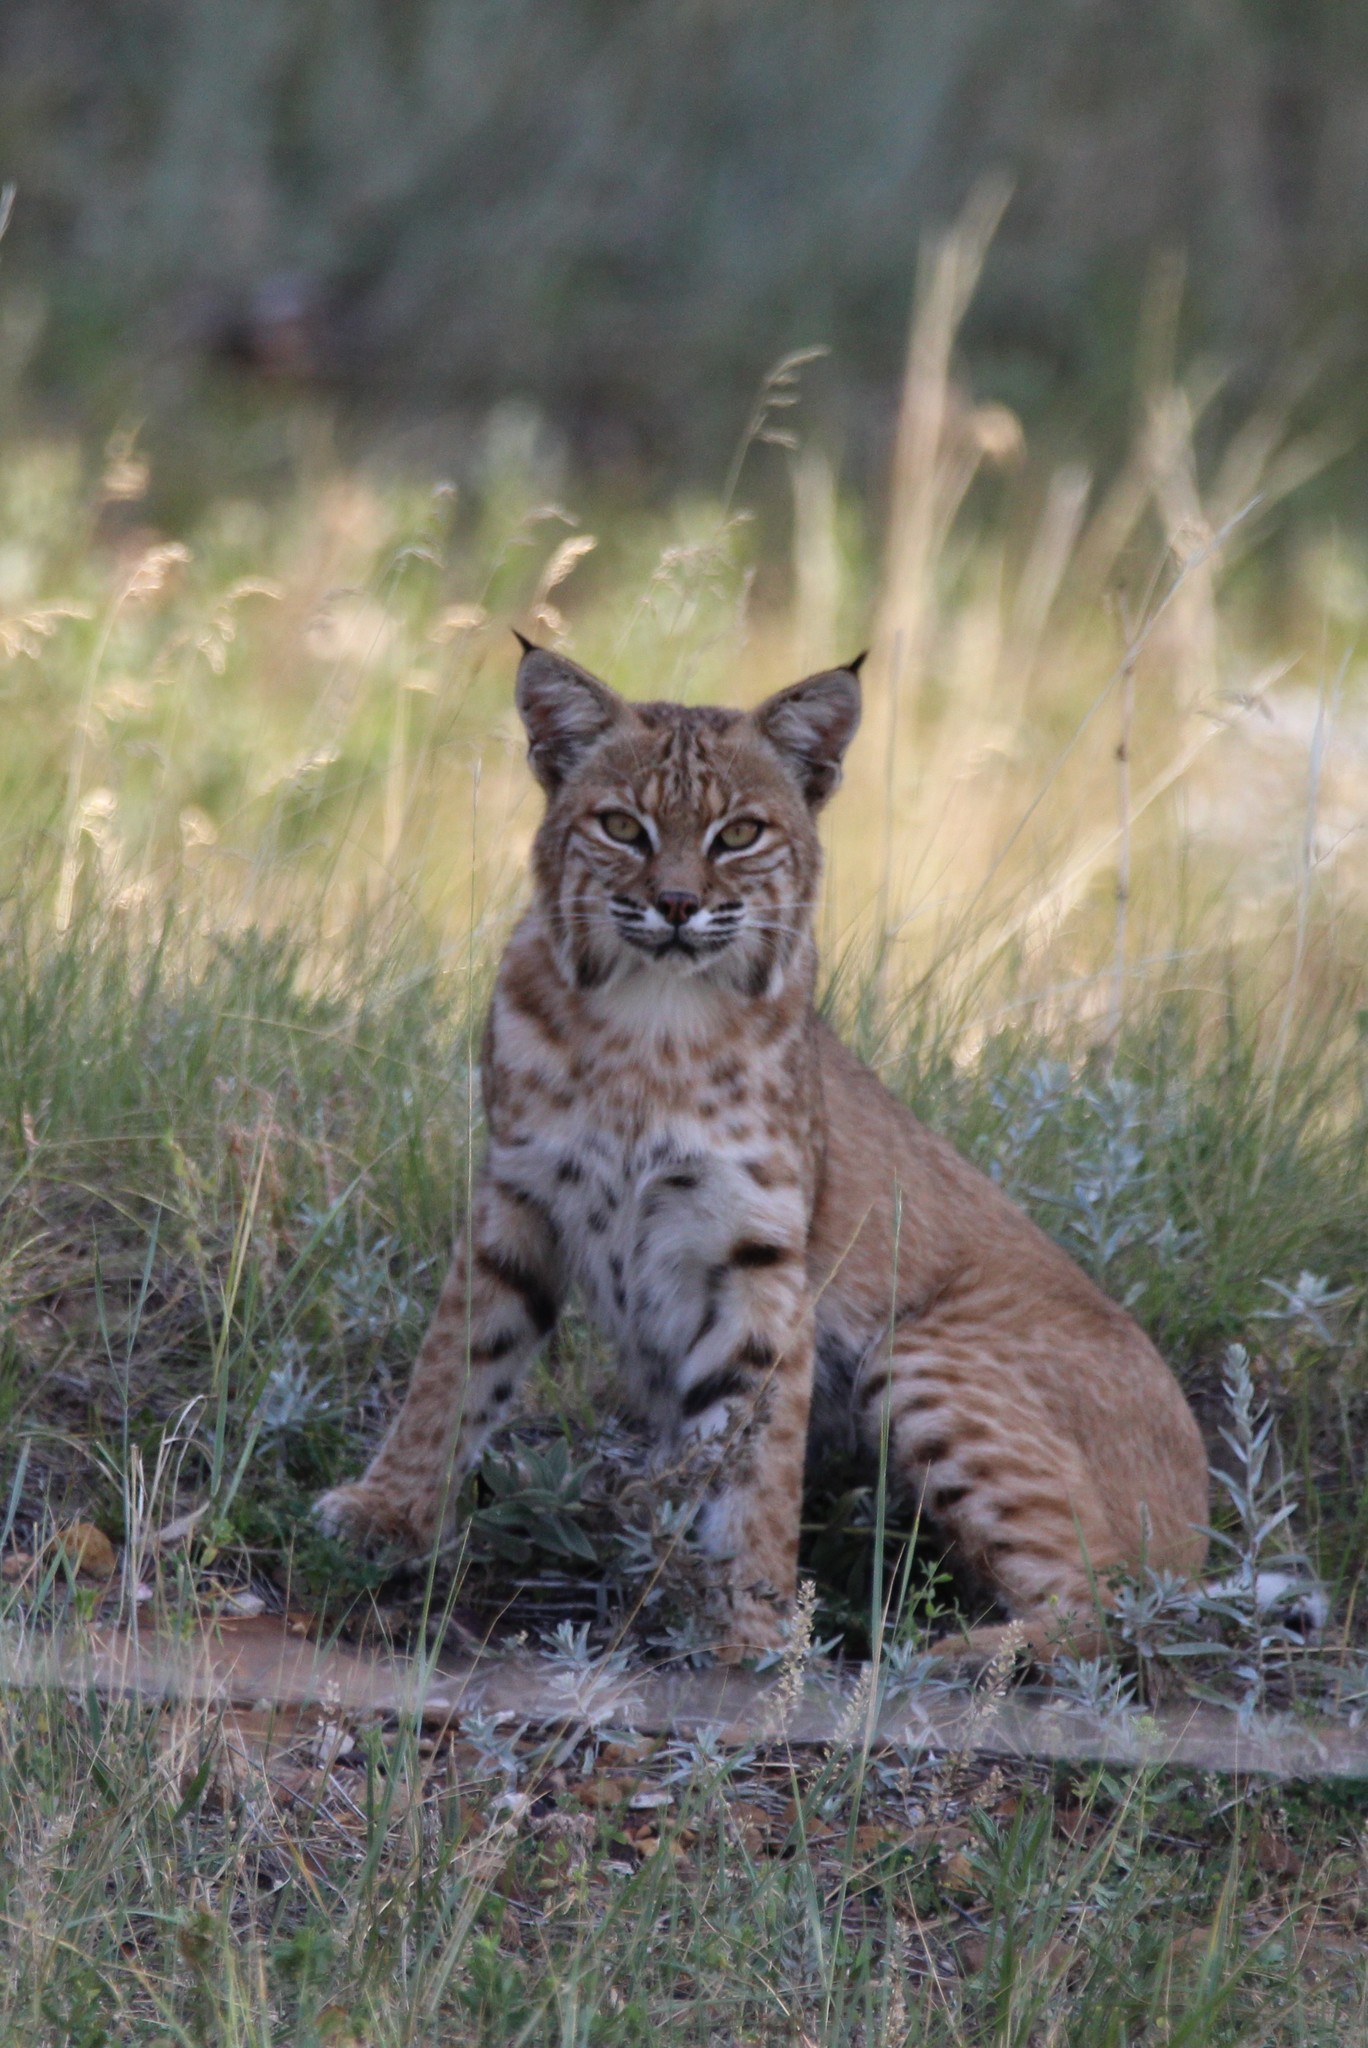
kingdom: Animalia
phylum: Chordata
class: Mammalia
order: Carnivora
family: Felidae
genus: Lynx
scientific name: Lynx rufus
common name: Bobcat
